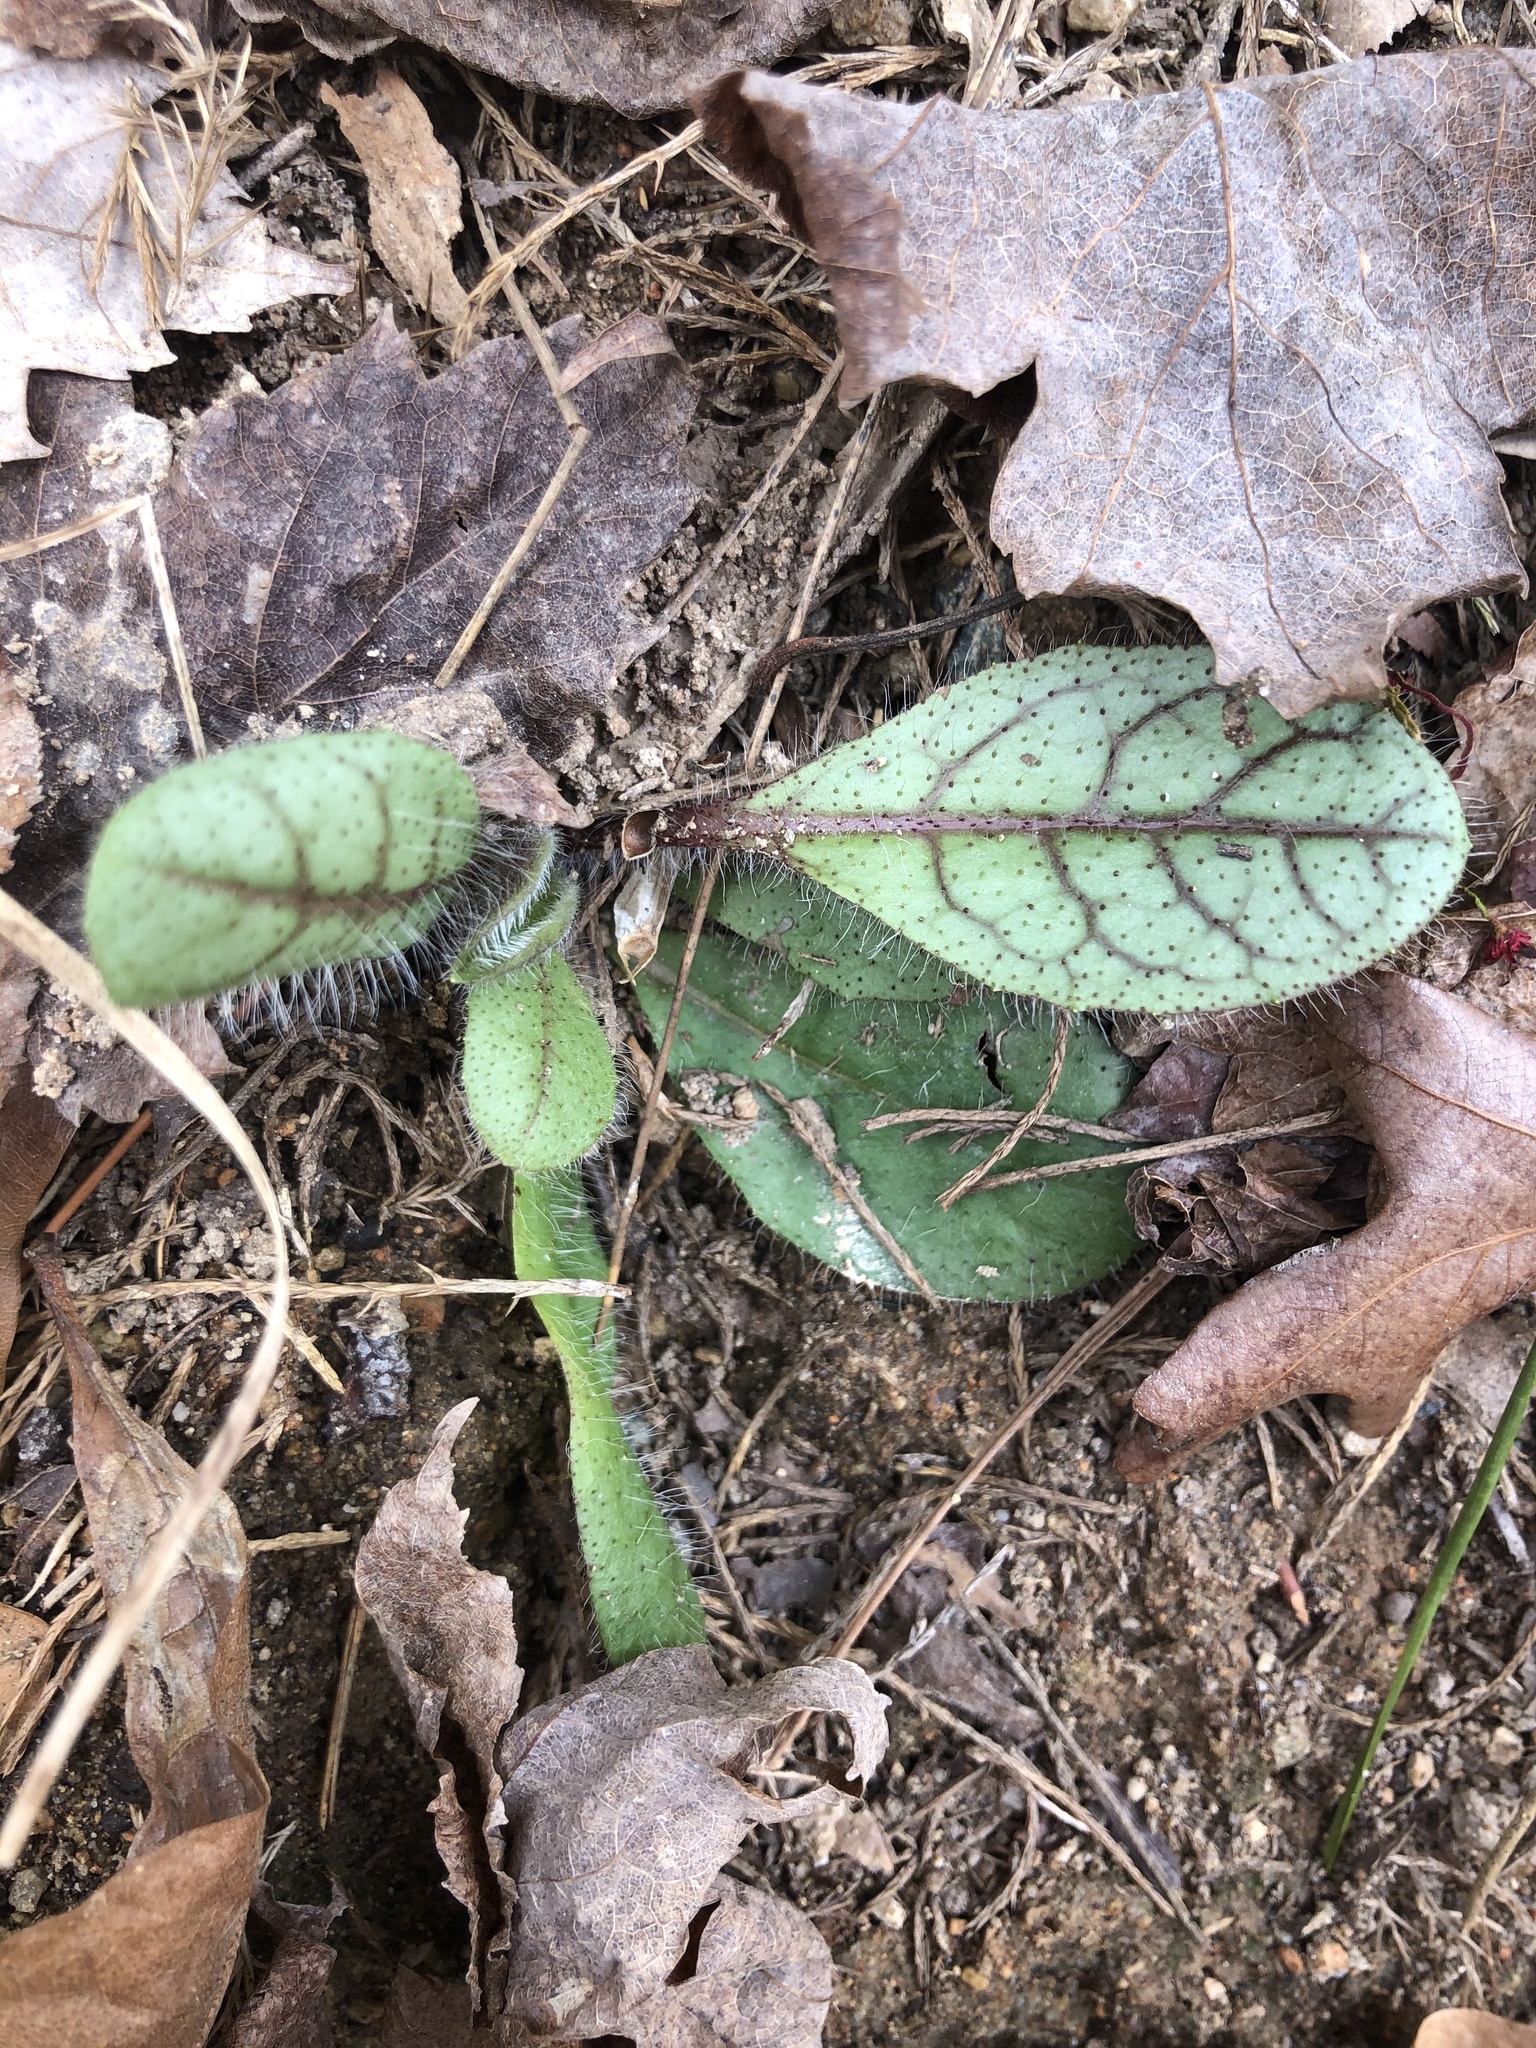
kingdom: Plantae
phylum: Tracheophyta
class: Magnoliopsida
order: Asterales
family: Asteraceae
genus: Hieracium
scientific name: Hieracium venosum
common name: Rattlesnake hawkweed
